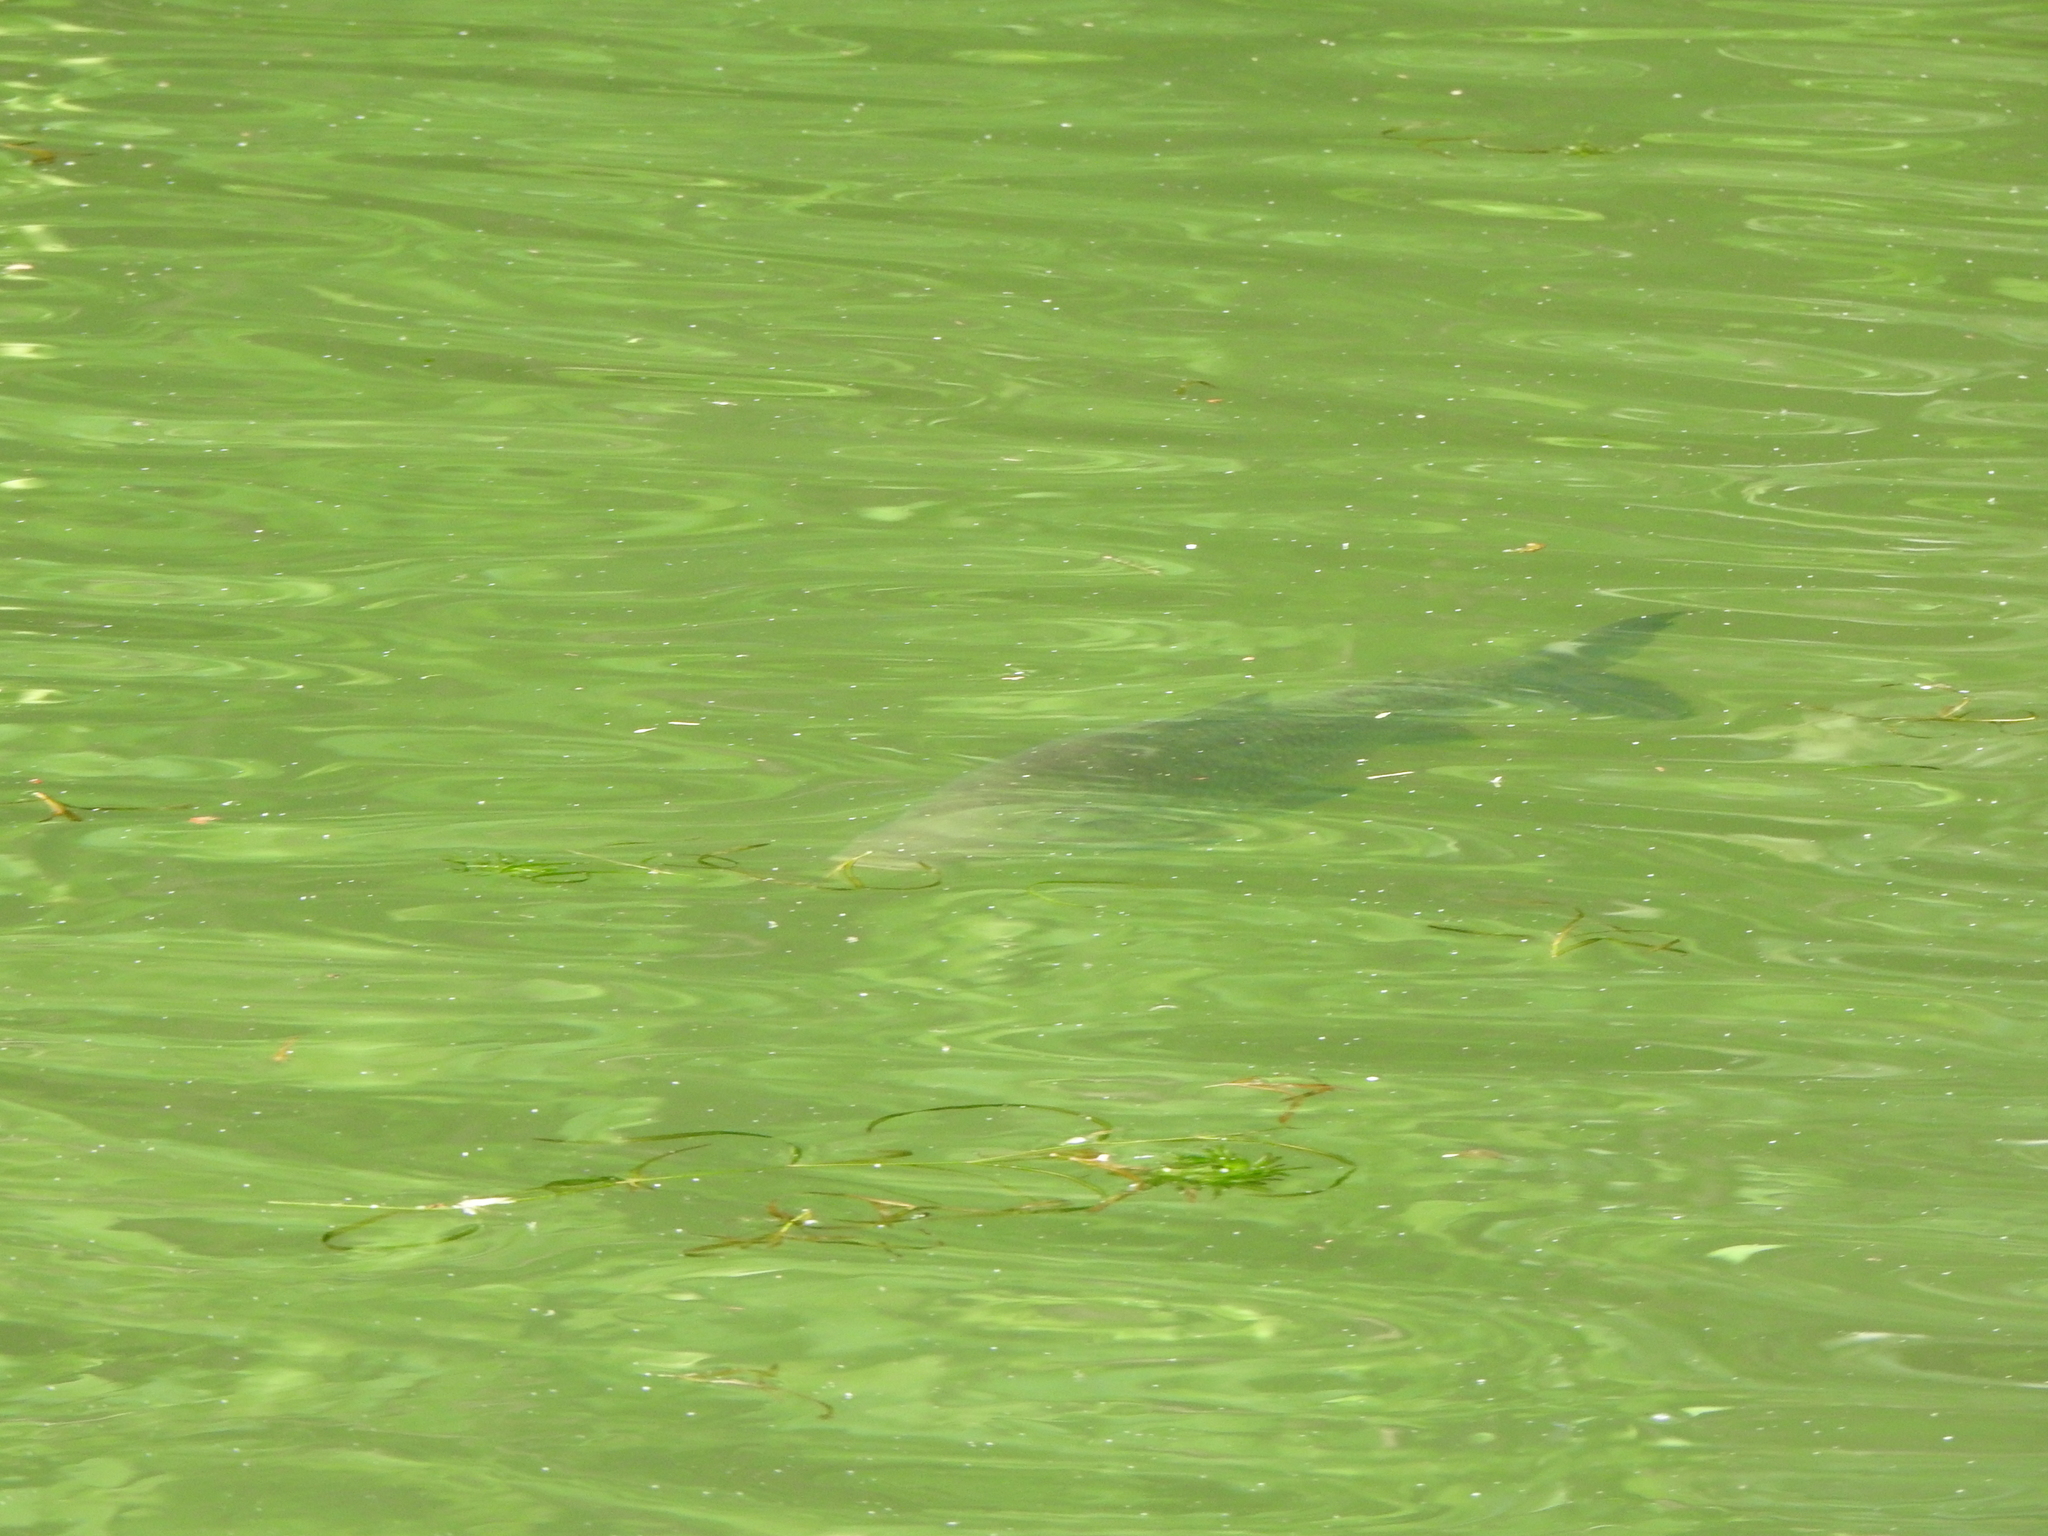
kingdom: Animalia
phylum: Chordata
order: Characiformes
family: Prochilodontidae
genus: Prochilodus
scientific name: Prochilodus lineatus
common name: Curimbata
